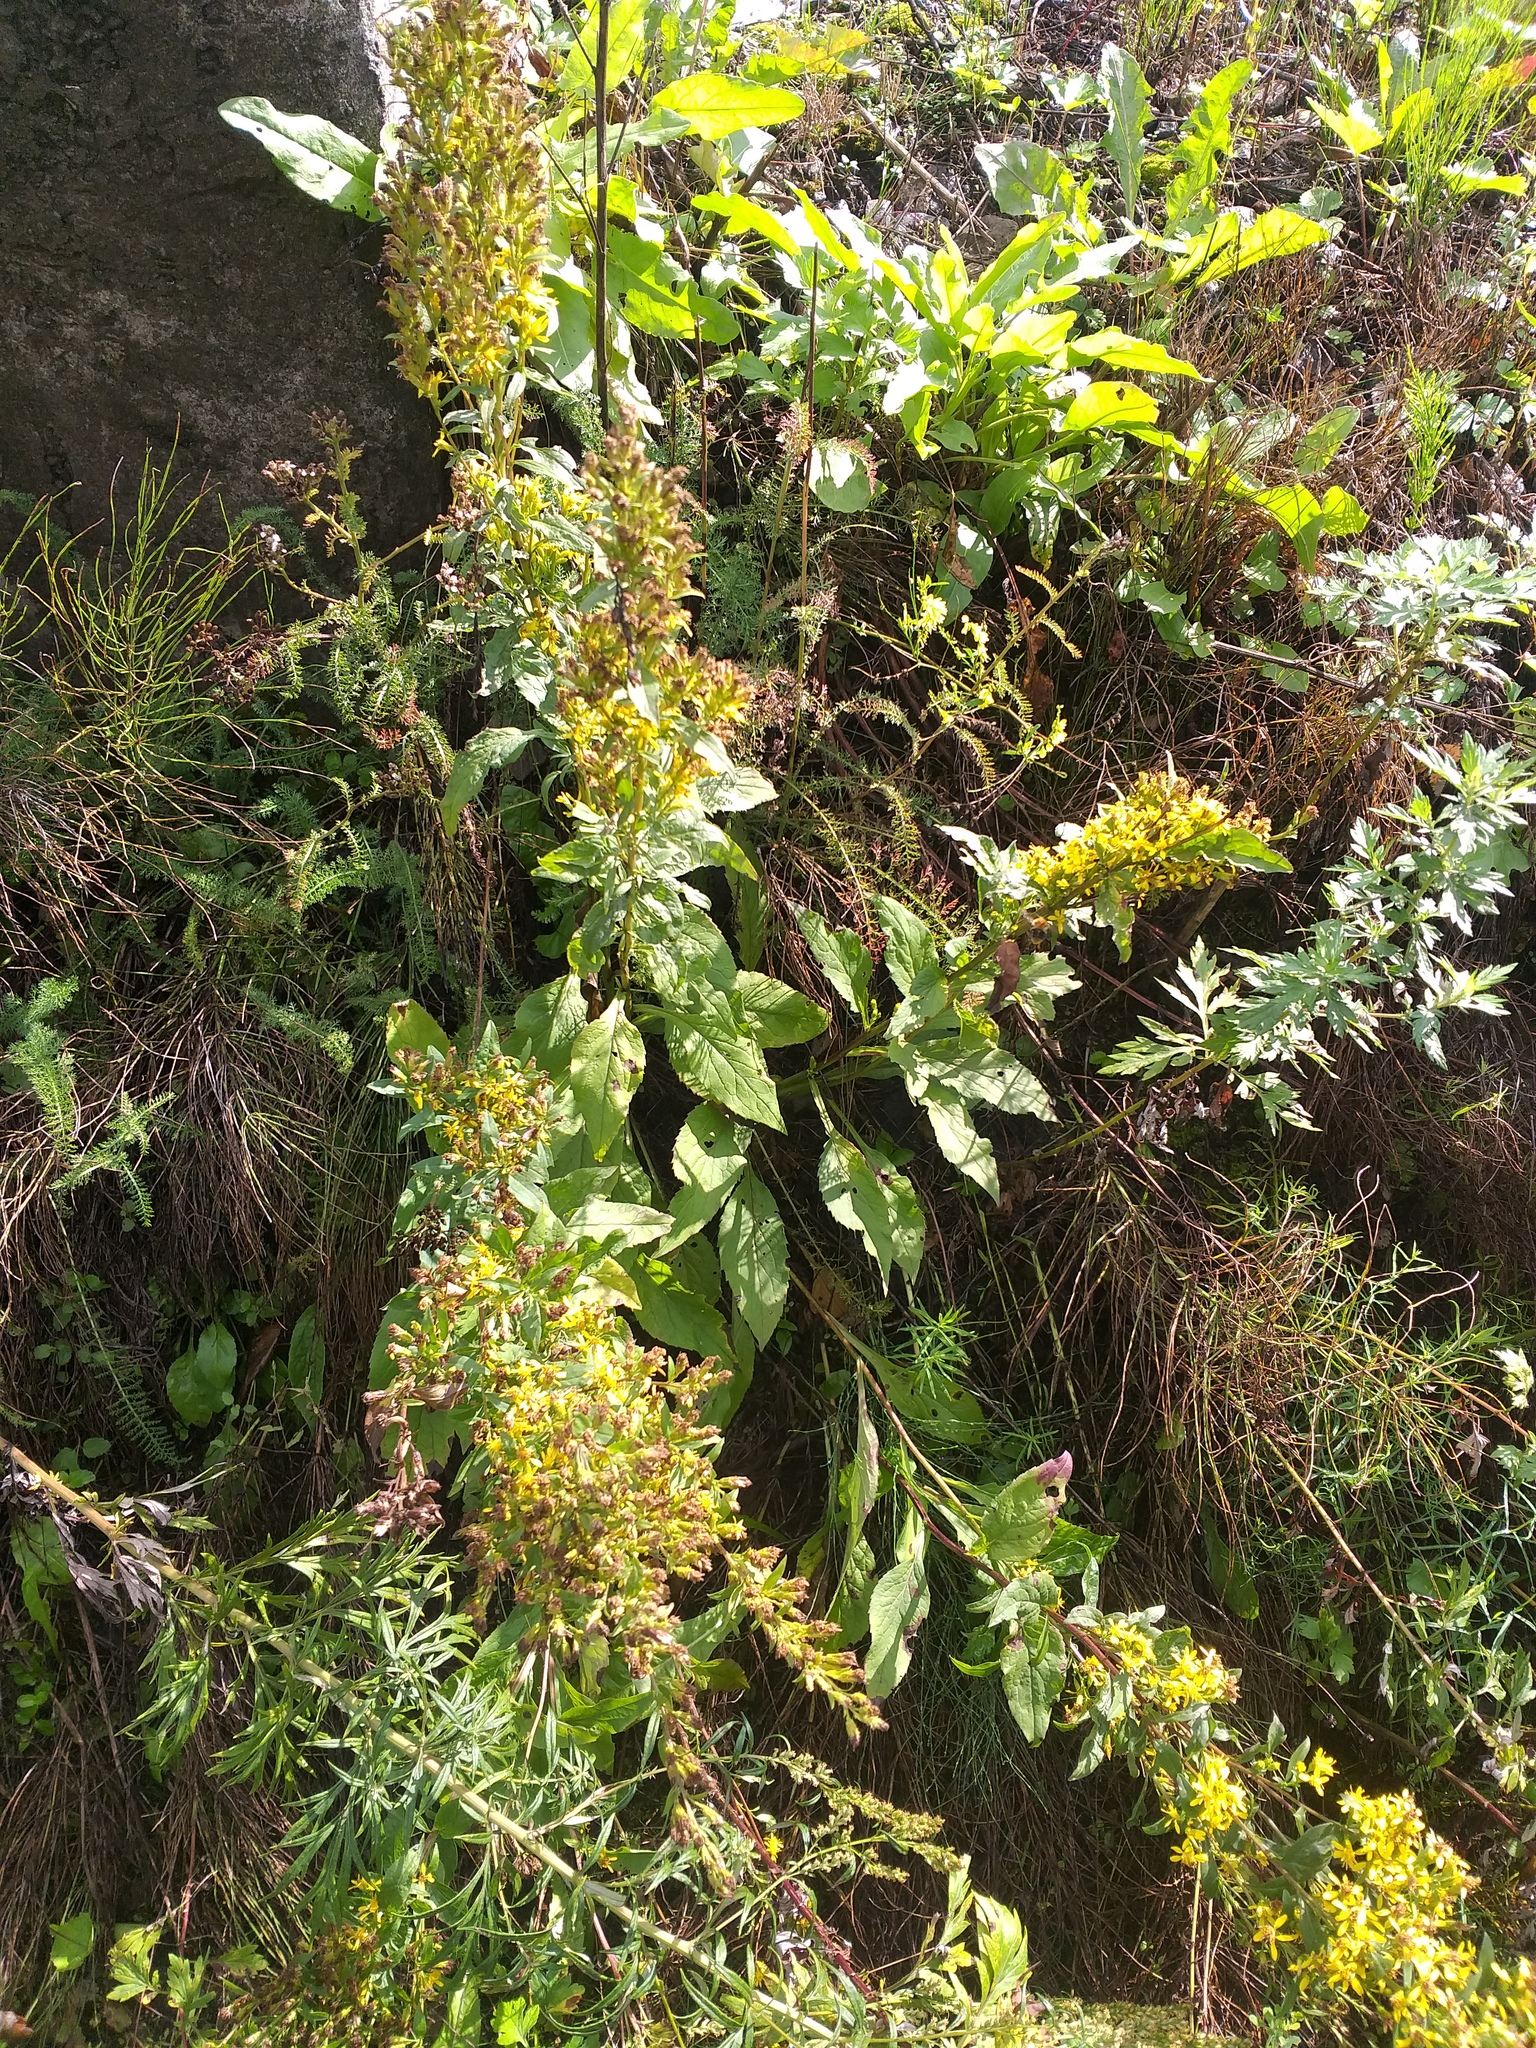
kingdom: Plantae
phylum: Tracheophyta
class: Magnoliopsida
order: Asterales
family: Asteraceae
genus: Solidago
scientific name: Solidago virgaurea
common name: Goldenrod
